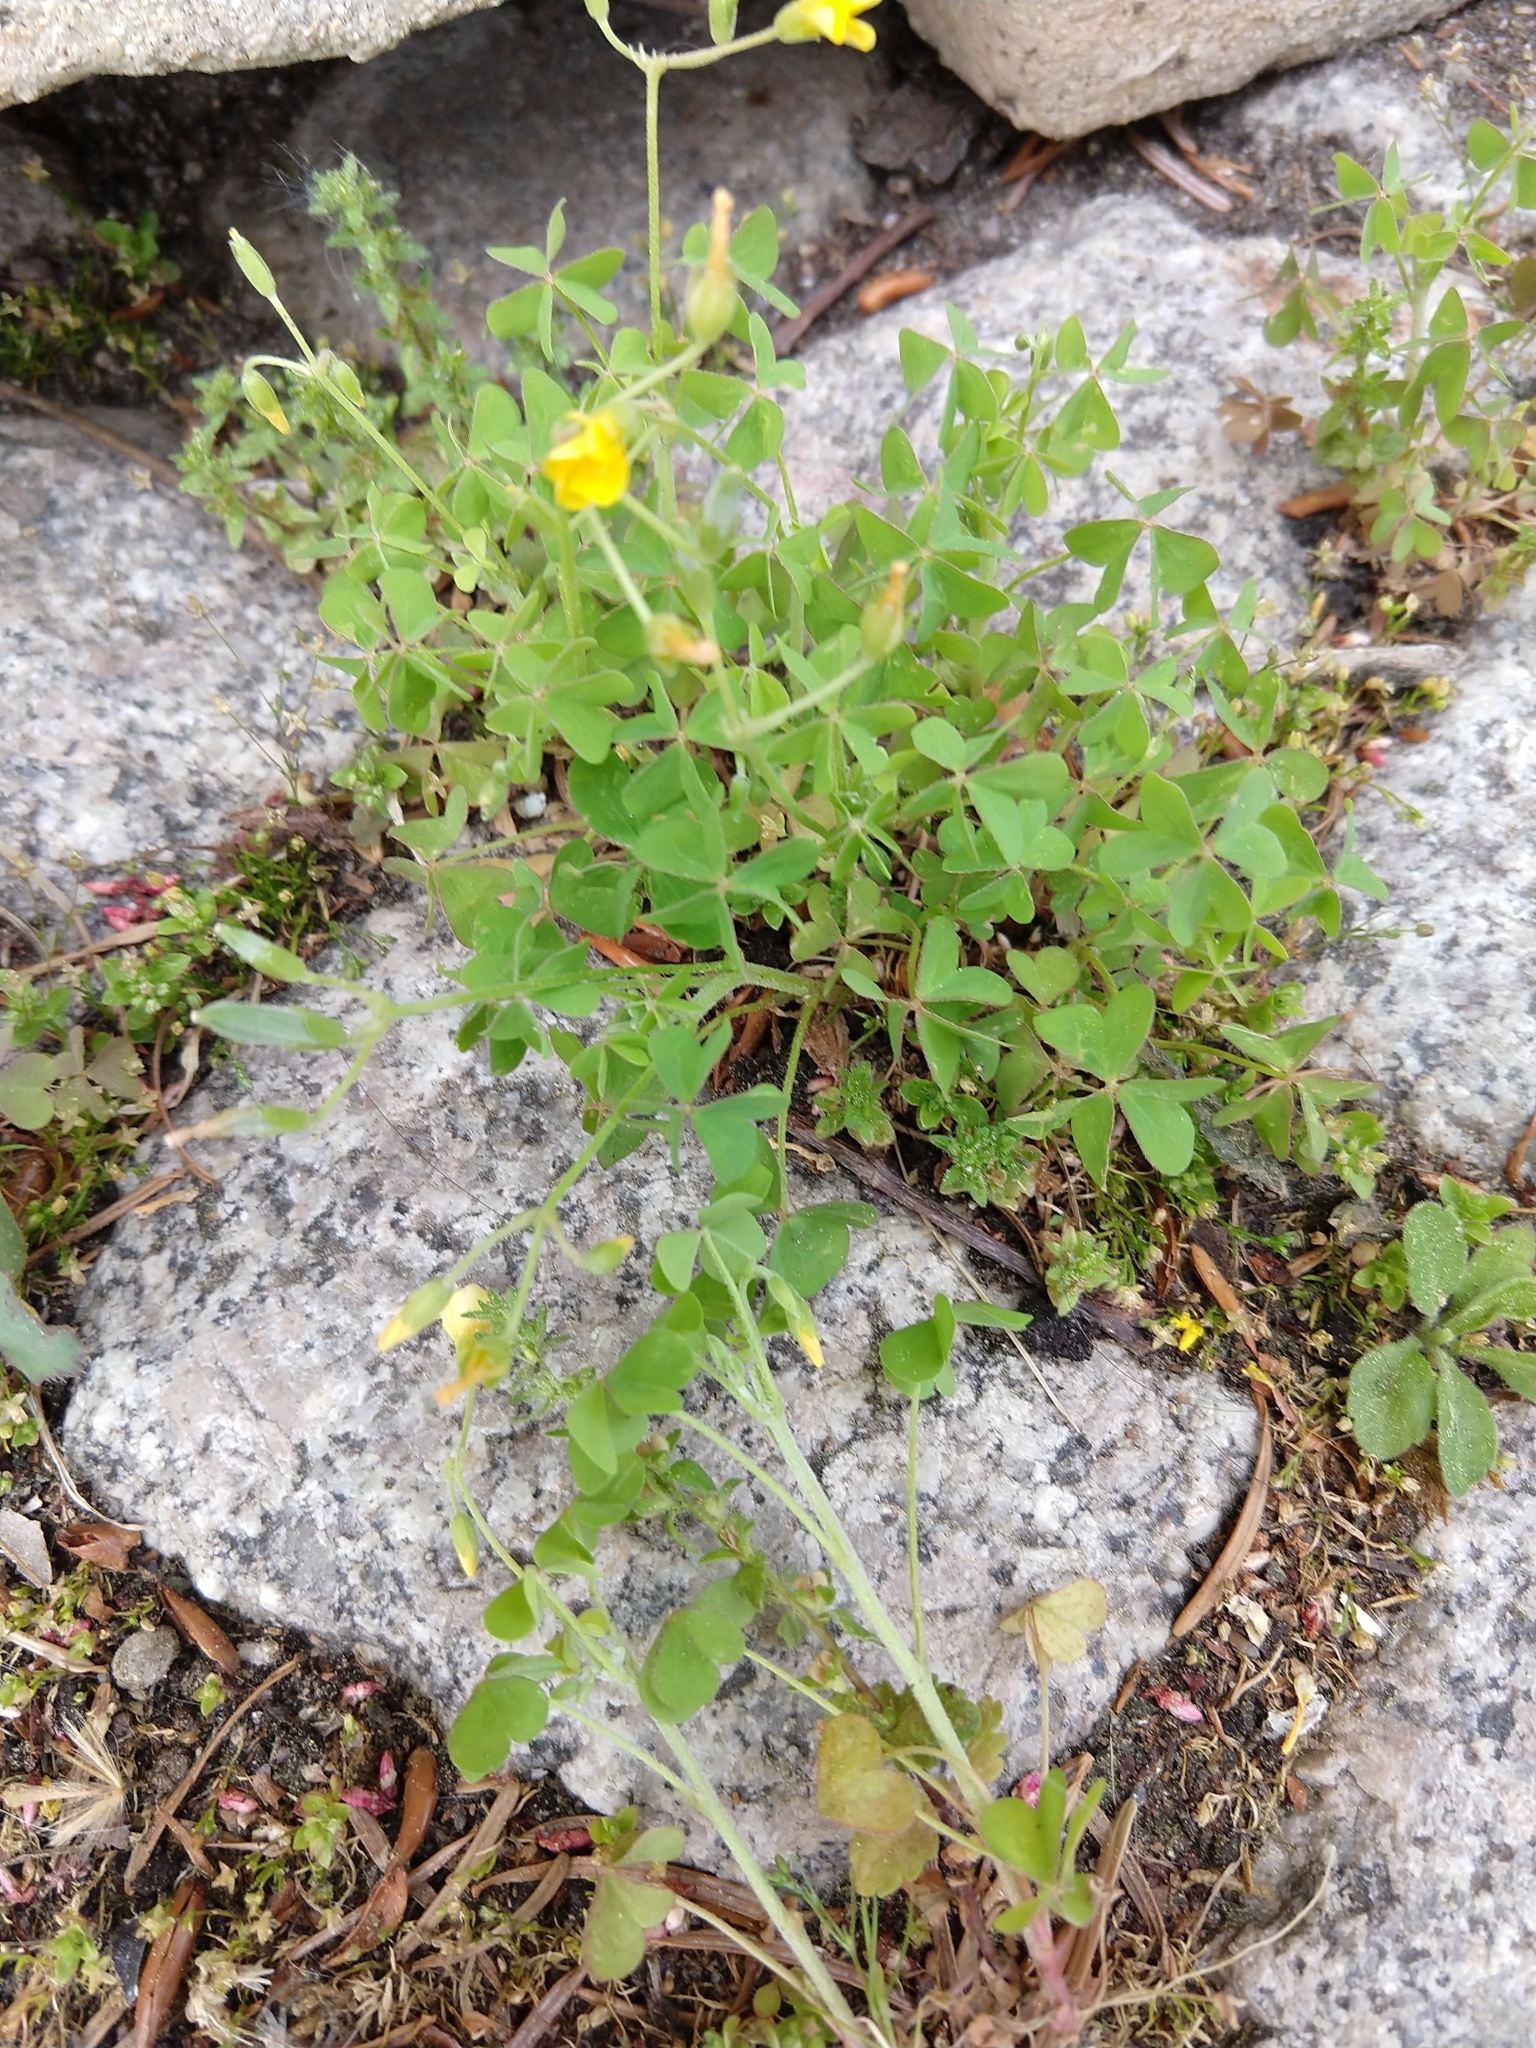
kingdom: Plantae
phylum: Tracheophyta
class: Magnoliopsida
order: Oxalidales
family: Oxalidaceae
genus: Oxalis
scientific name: Oxalis dillenii
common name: Sussex yellow-sorrel
